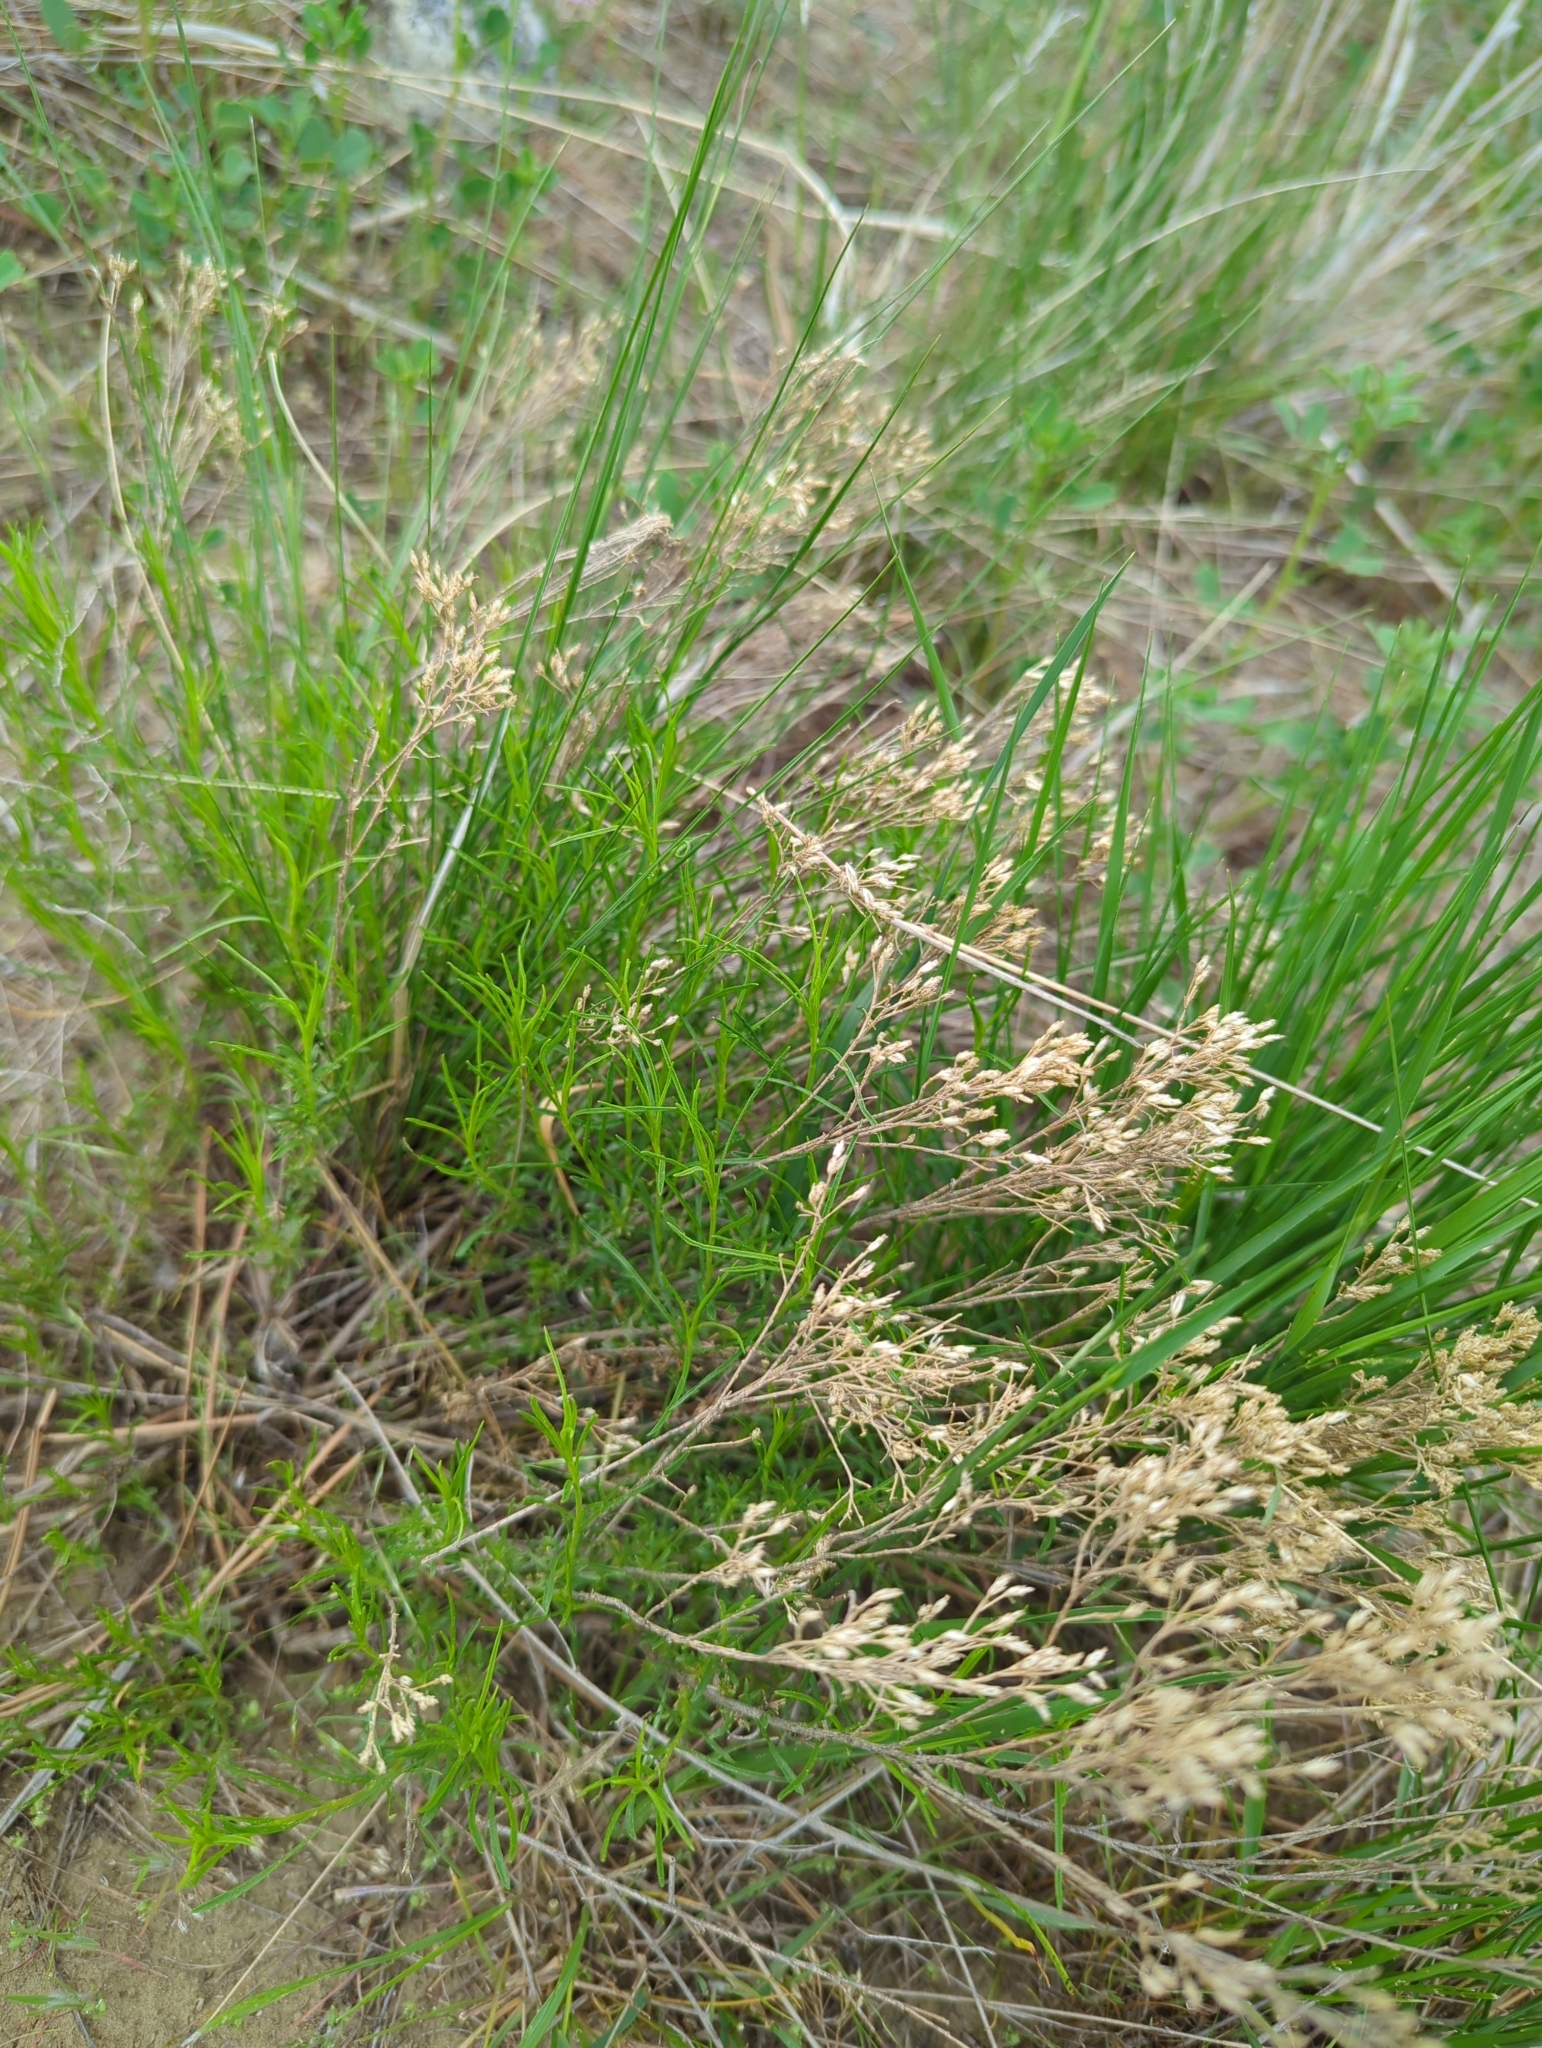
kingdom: Plantae
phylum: Tracheophyta
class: Magnoliopsida
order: Asterales
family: Asteraceae
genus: Gutierrezia
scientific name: Gutierrezia sarothrae
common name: Broom snakeweed
